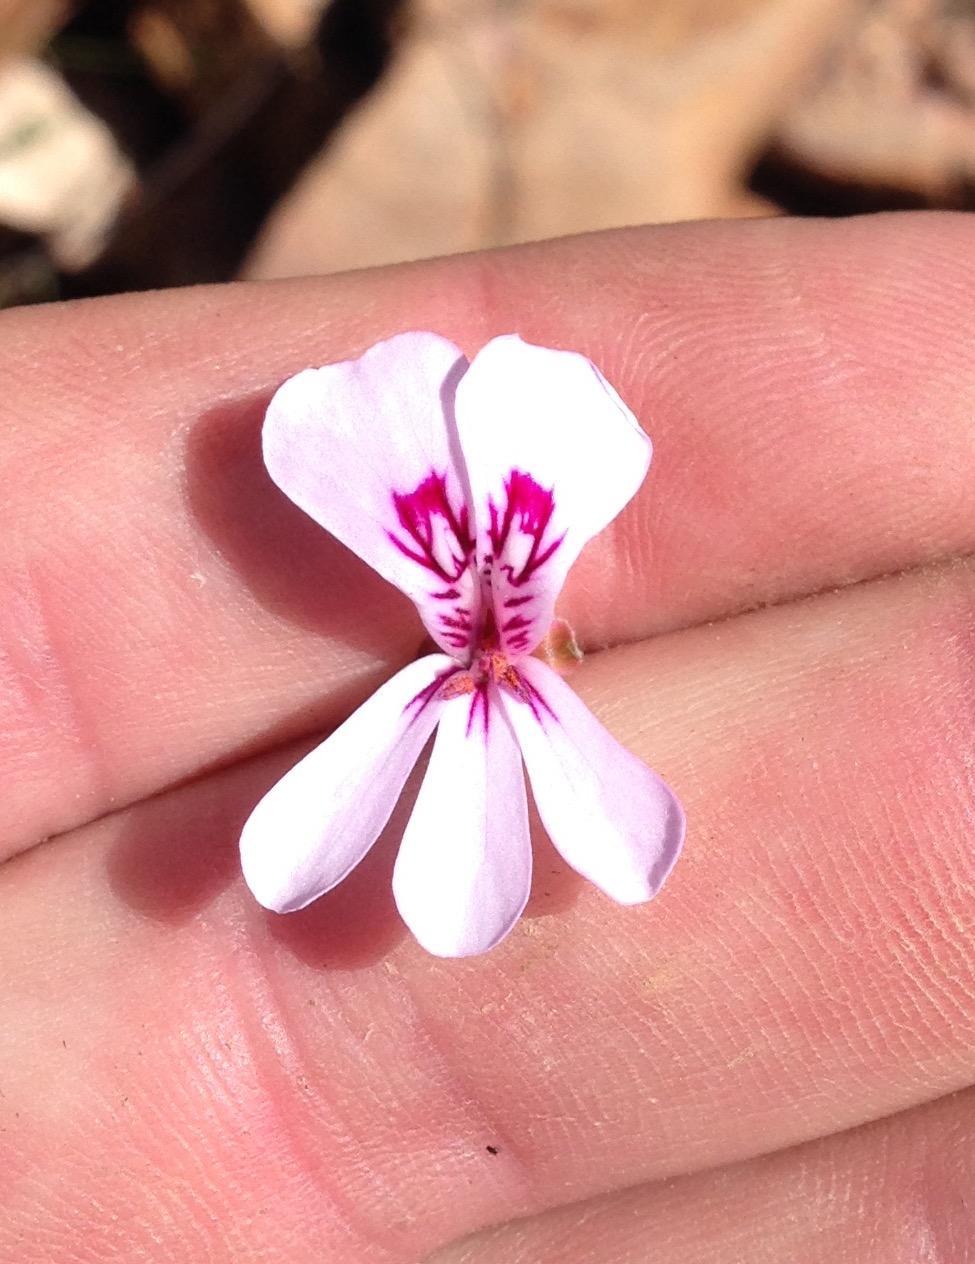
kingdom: Plantae
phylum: Tracheophyta
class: Magnoliopsida
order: Geraniales
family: Geraniaceae
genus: Pelargonium
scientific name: Pelargonium laevigatum
